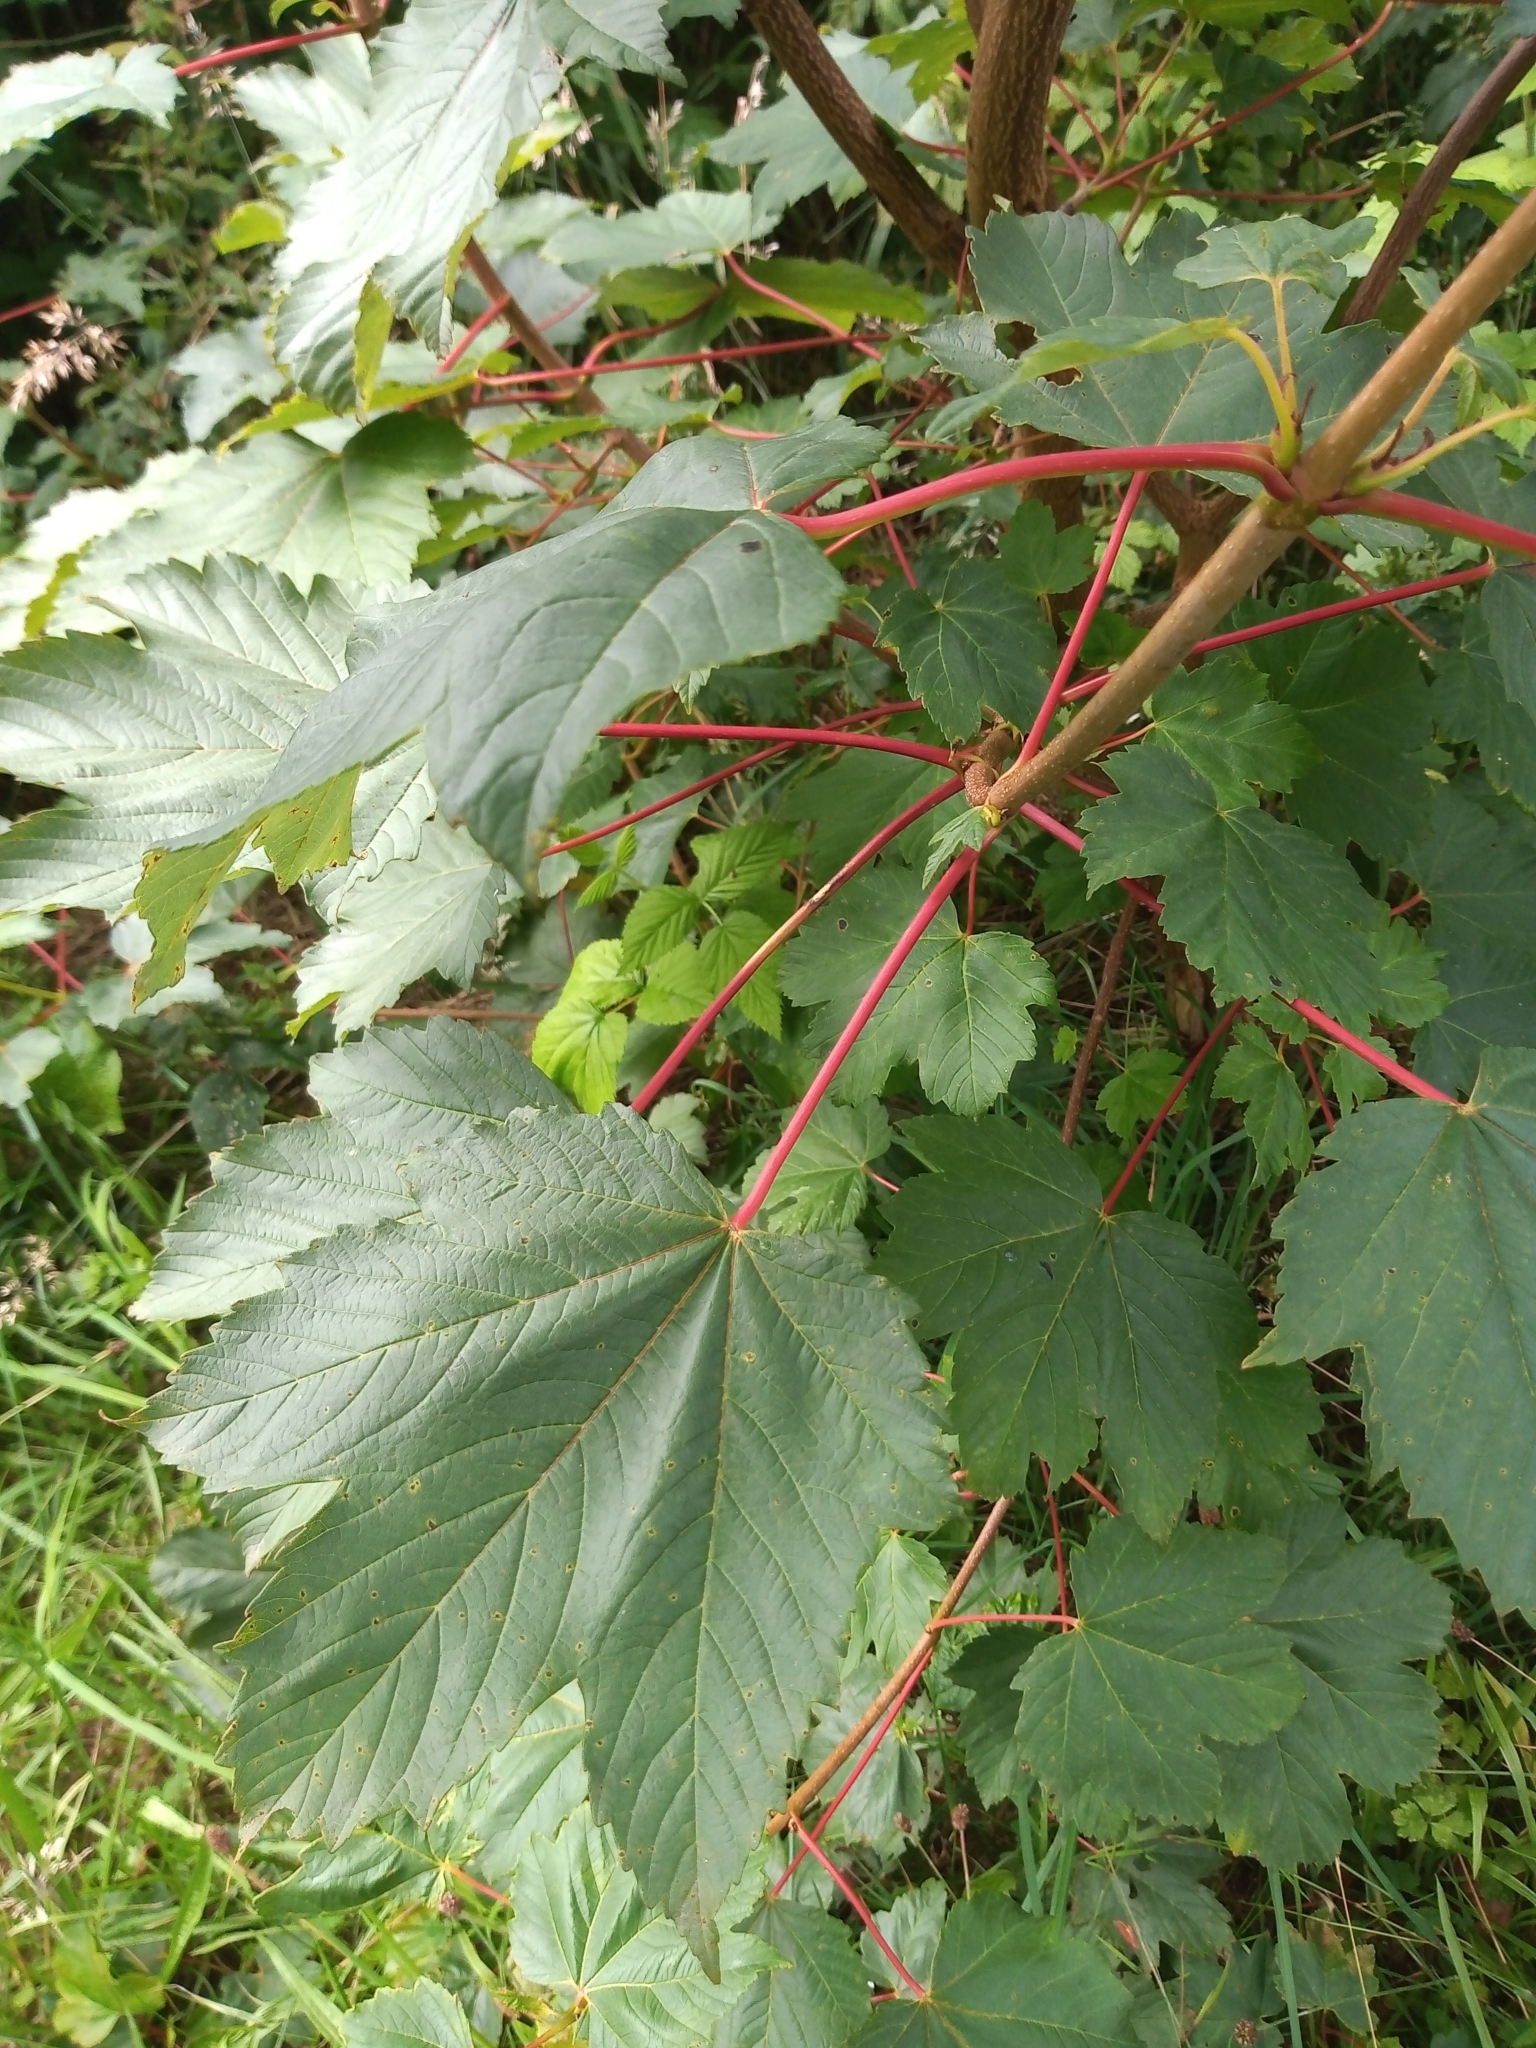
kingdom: Plantae
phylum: Tracheophyta
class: Magnoliopsida
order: Sapindales
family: Sapindaceae
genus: Acer
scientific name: Acer pseudoplatanus
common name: Sycamore
